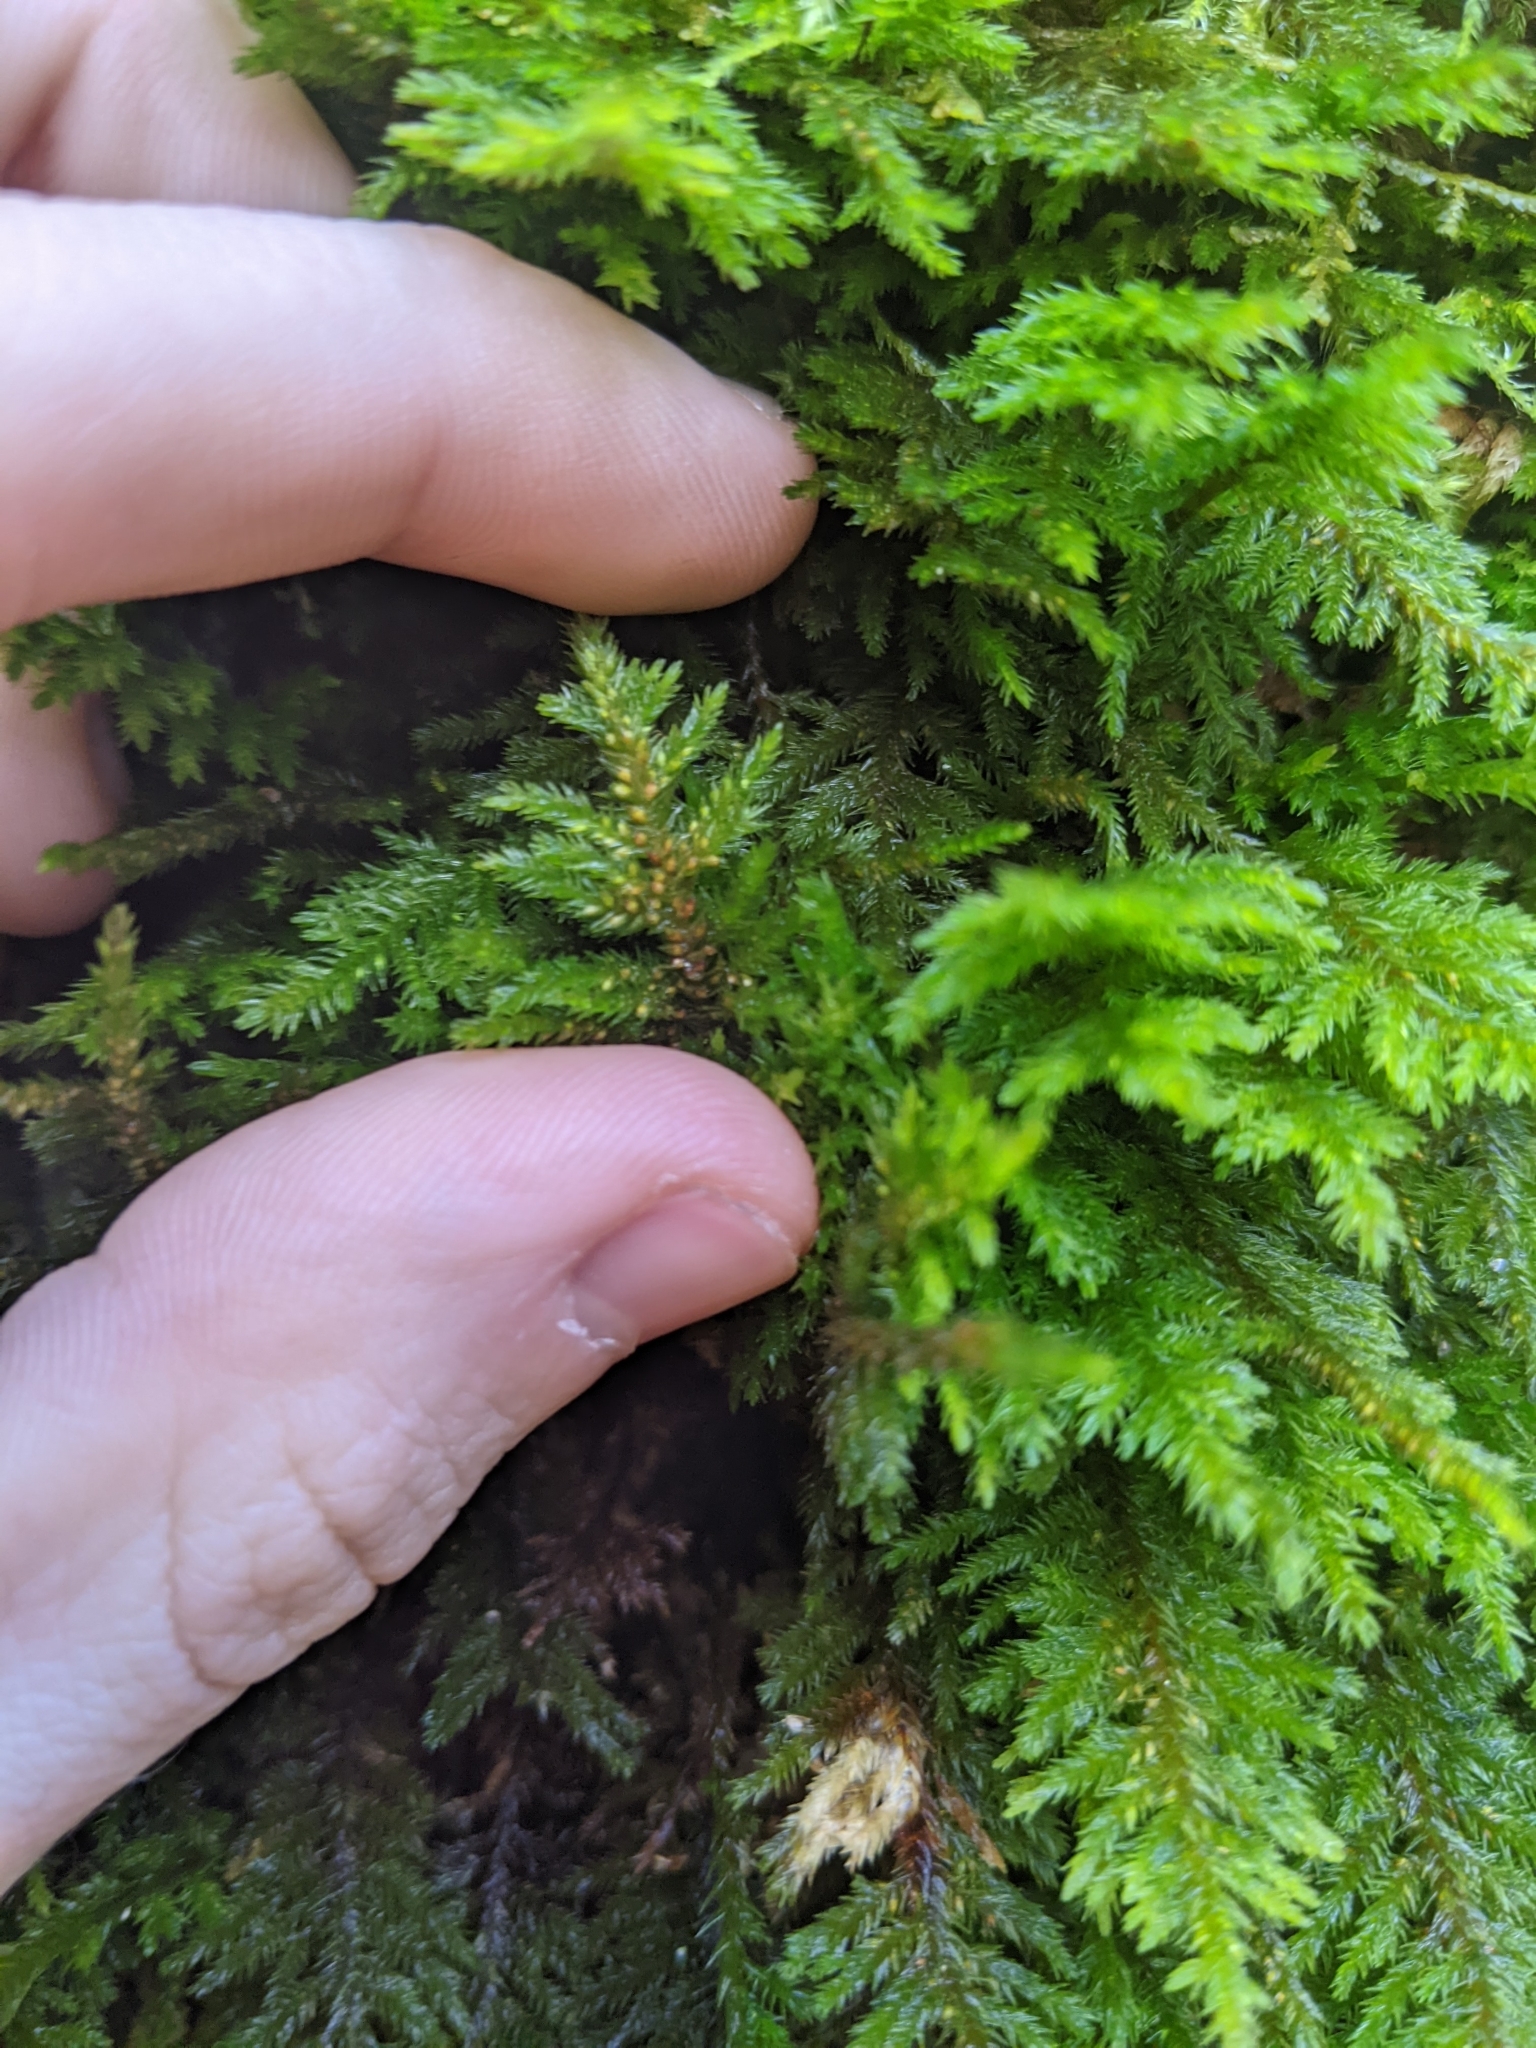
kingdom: Plantae
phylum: Bryophyta
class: Bryopsida
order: Hypnales
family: Cryphaeaceae
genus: Dendroalsia
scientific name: Dendroalsia abietina
